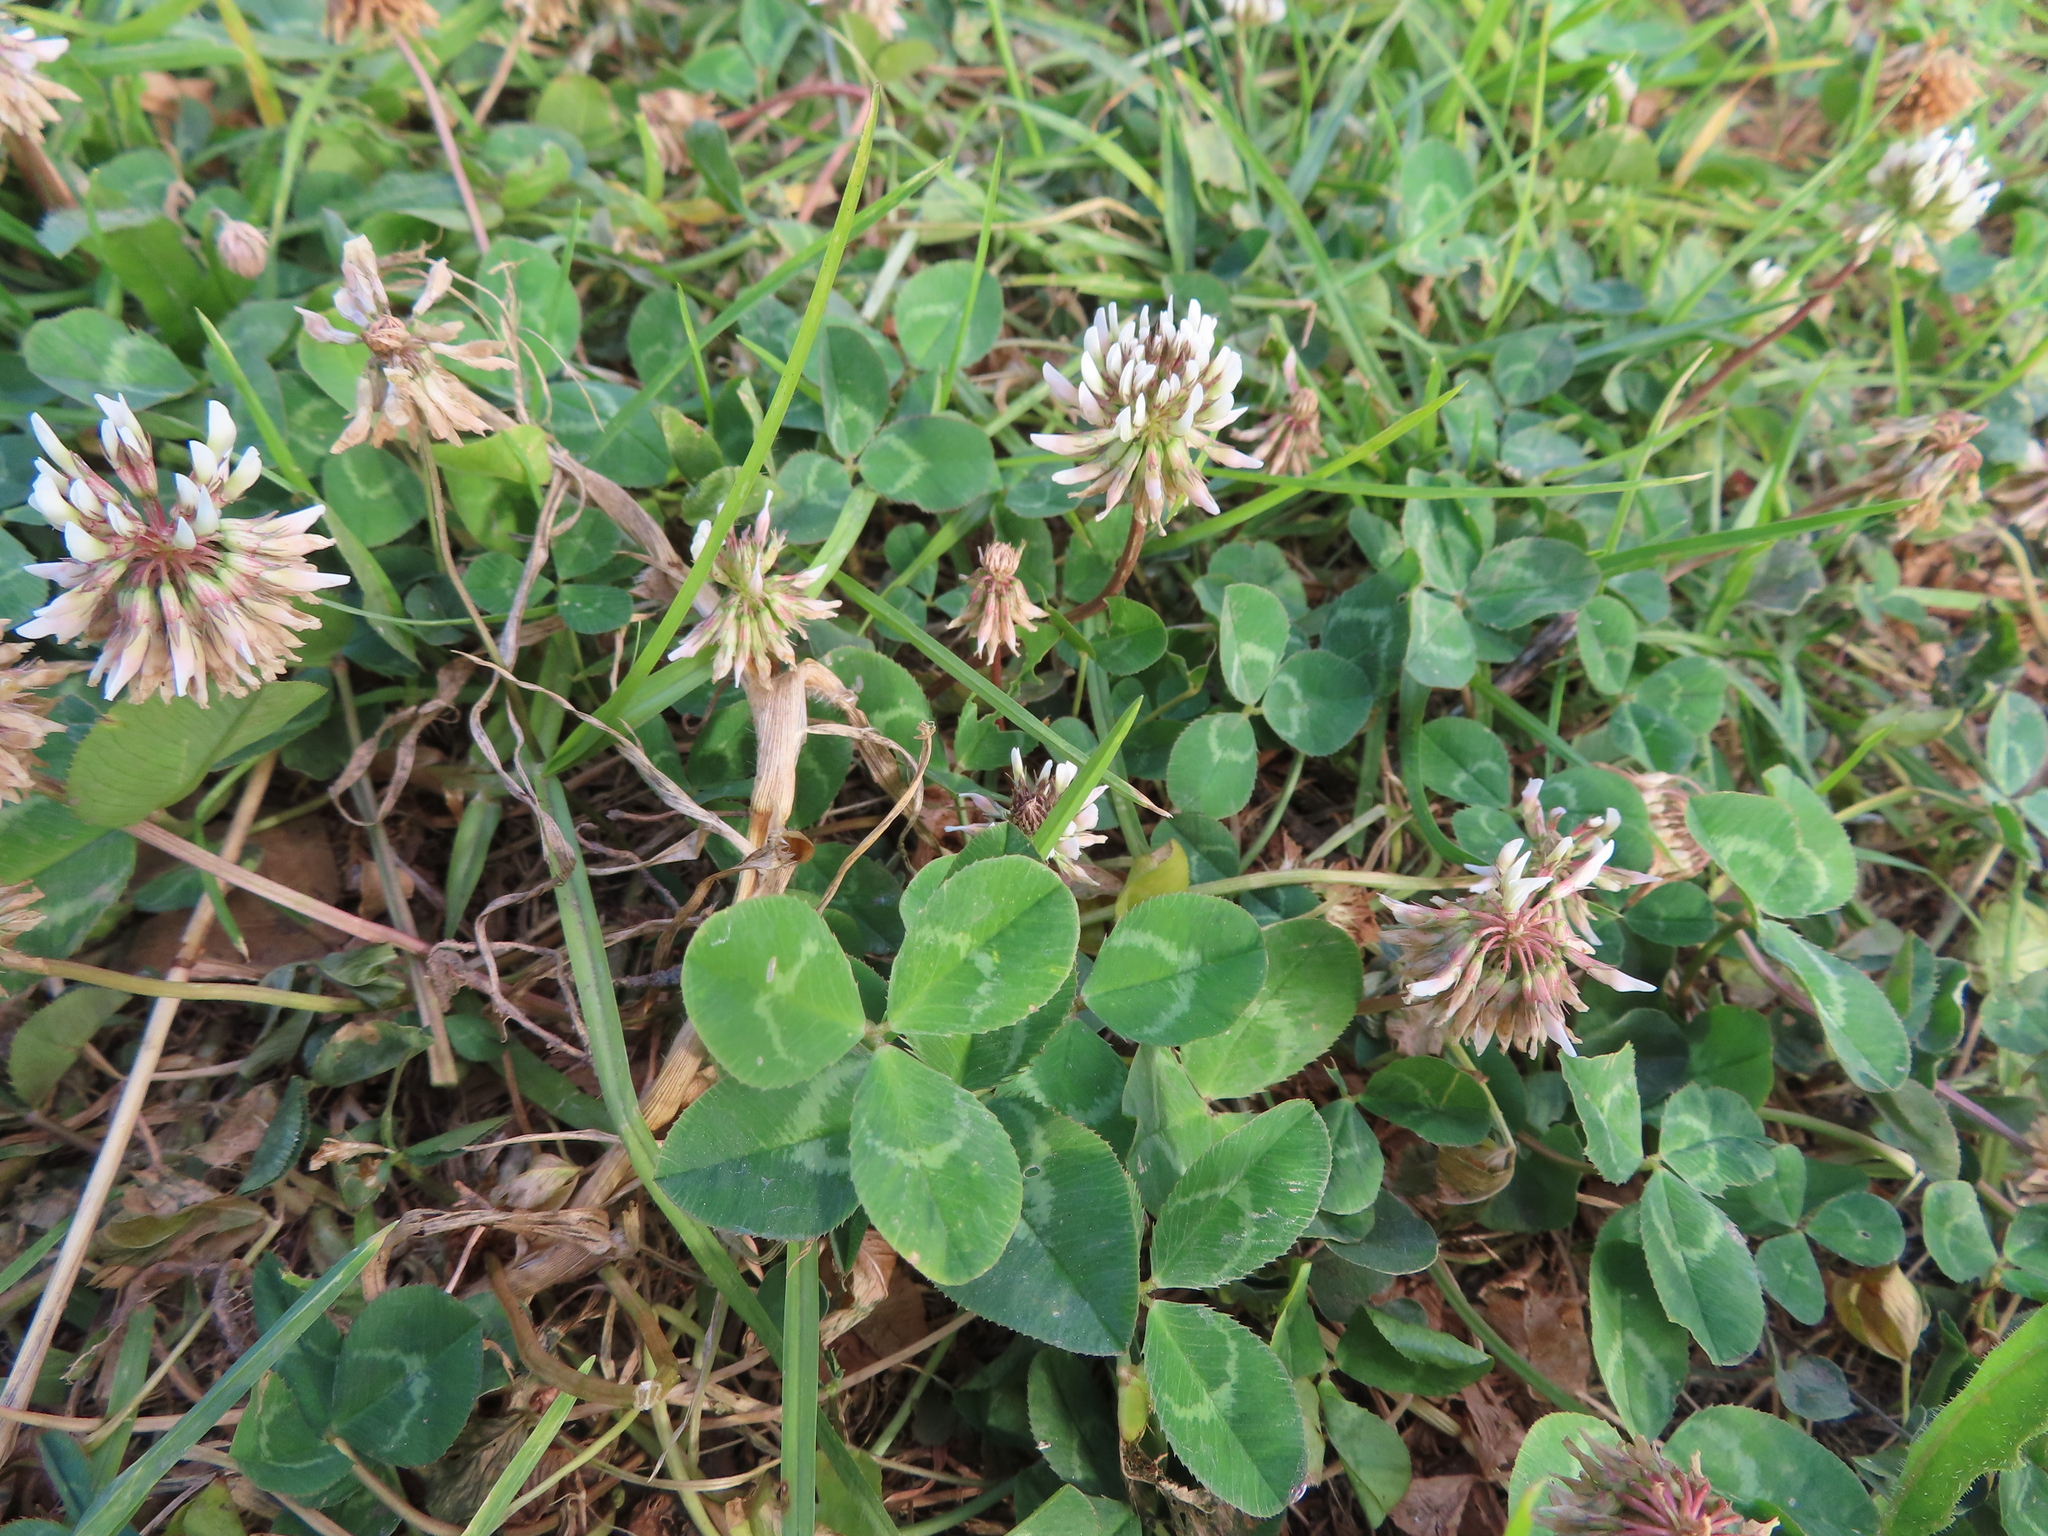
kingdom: Plantae
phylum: Tracheophyta
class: Magnoliopsida
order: Fabales
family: Fabaceae
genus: Trifolium
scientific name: Trifolium repens
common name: White clover
